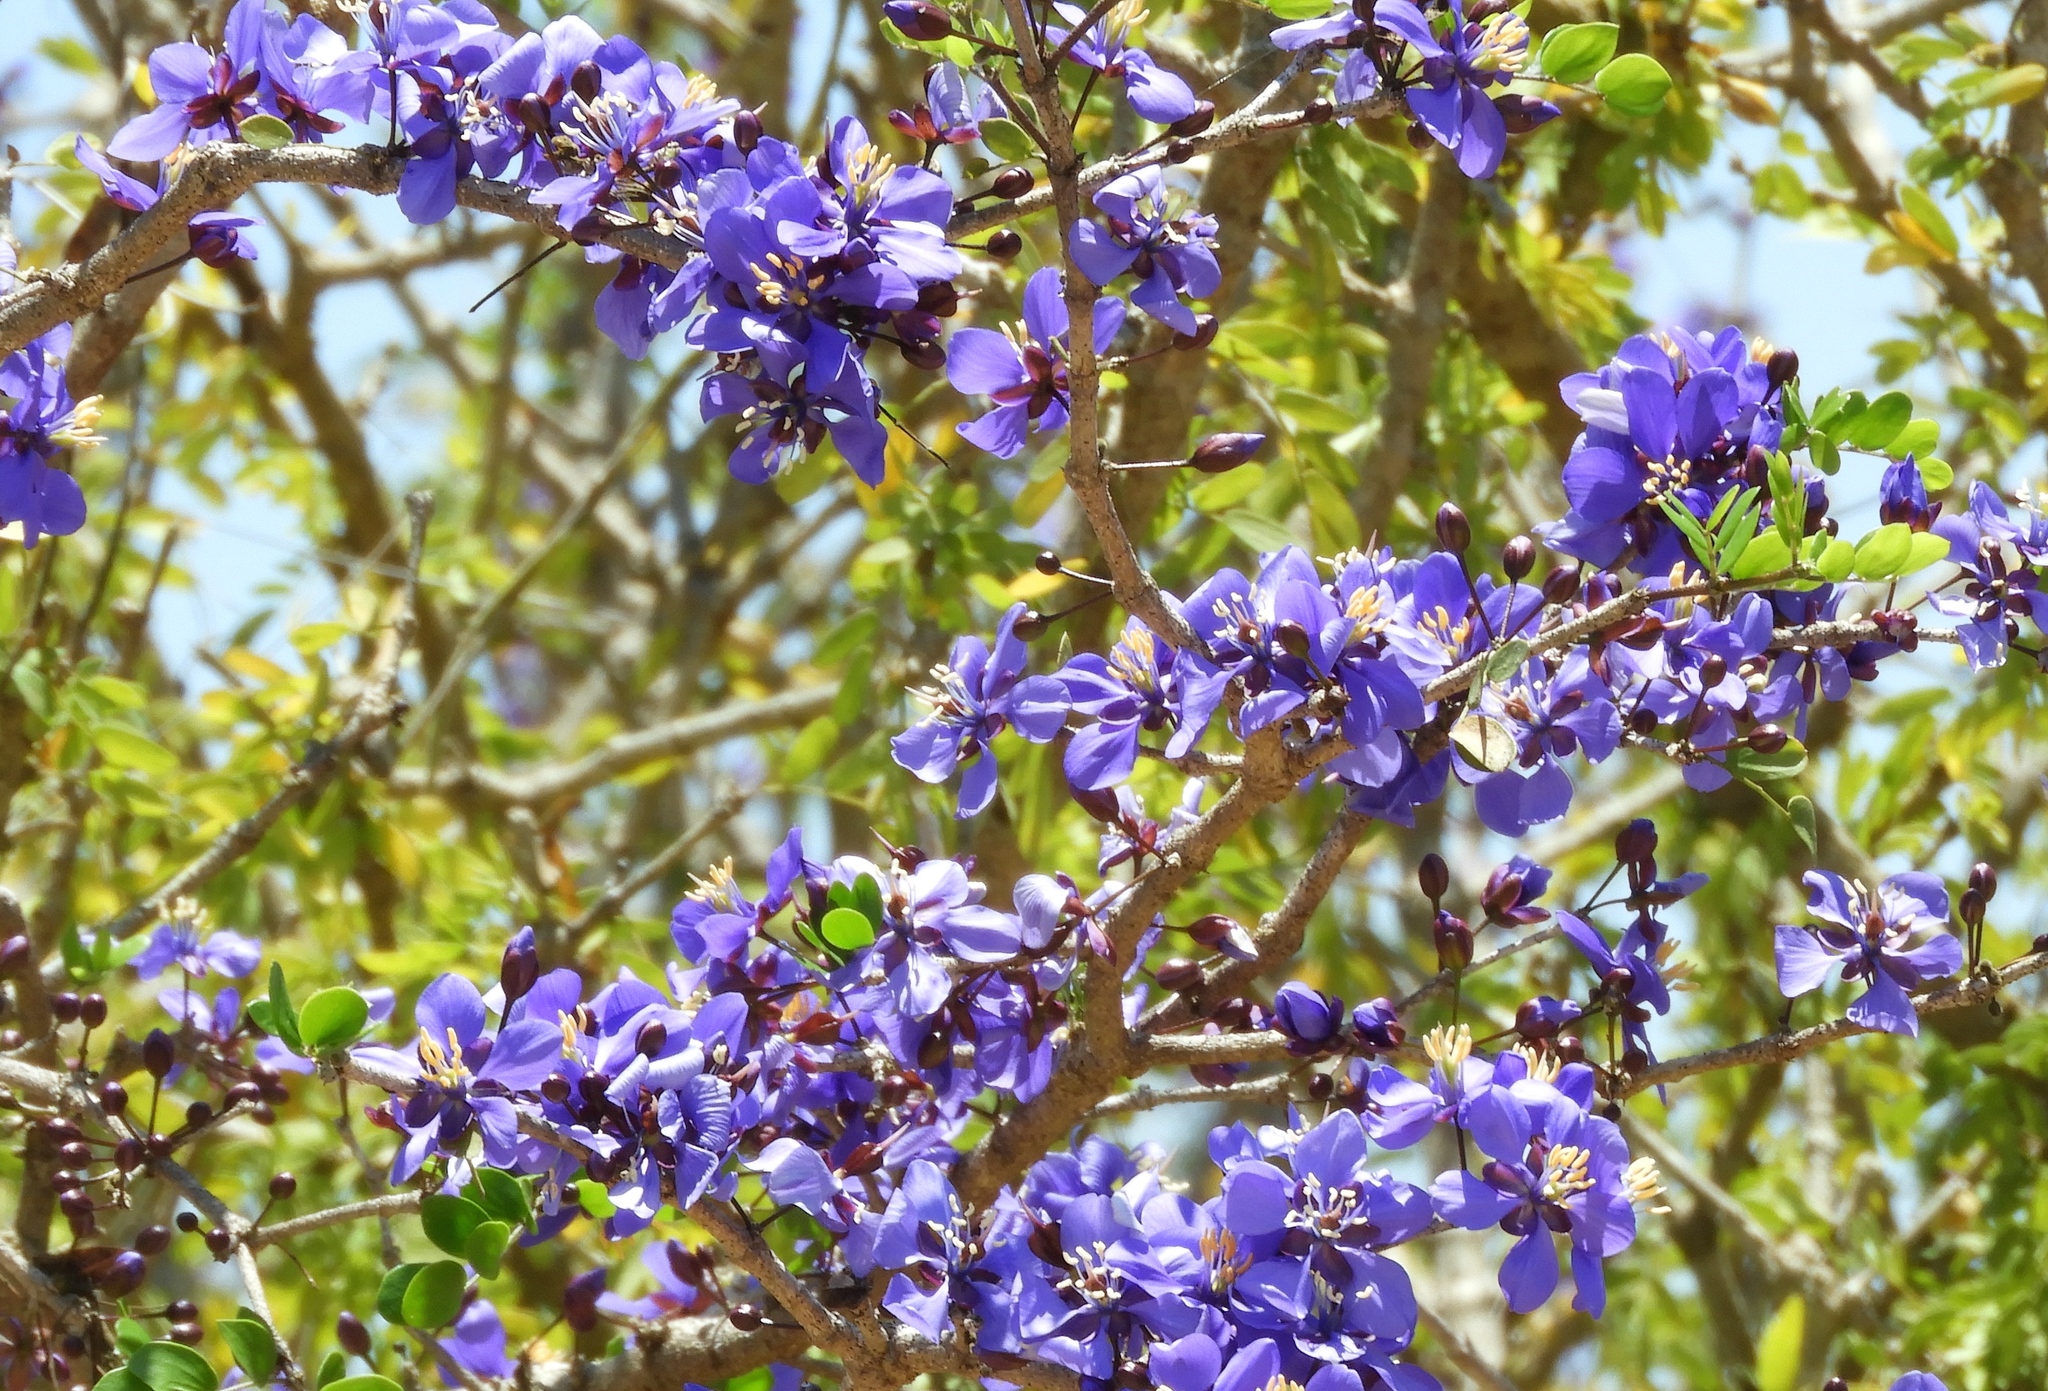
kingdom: Plantae
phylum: Tracheophyta
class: Magnoliopsida
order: Zygophyllales
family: Zygophyllaceae
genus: Guaiacum
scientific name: Guaiacum coulteri
